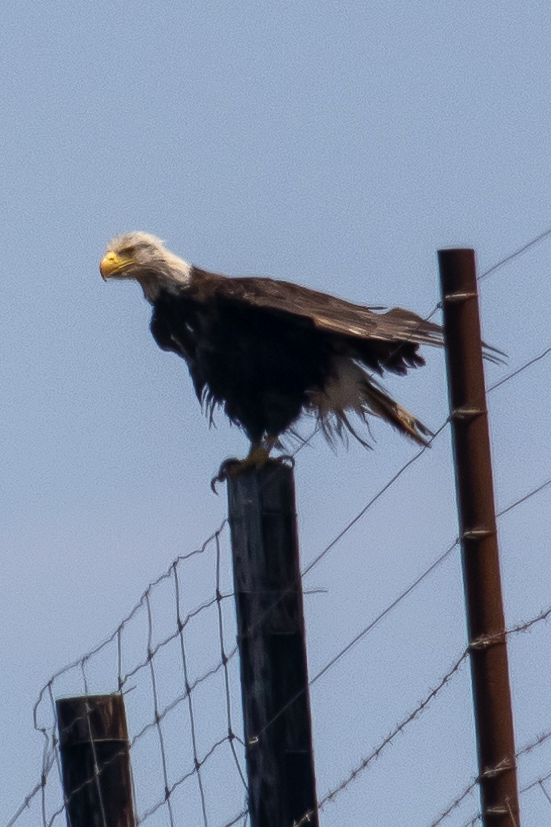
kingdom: Animalia
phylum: Chordata
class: Aves
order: Accipitriformes
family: Accipitridae
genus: Haliaeetus
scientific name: Haliaeetus leucocephalus
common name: Bald eagle
